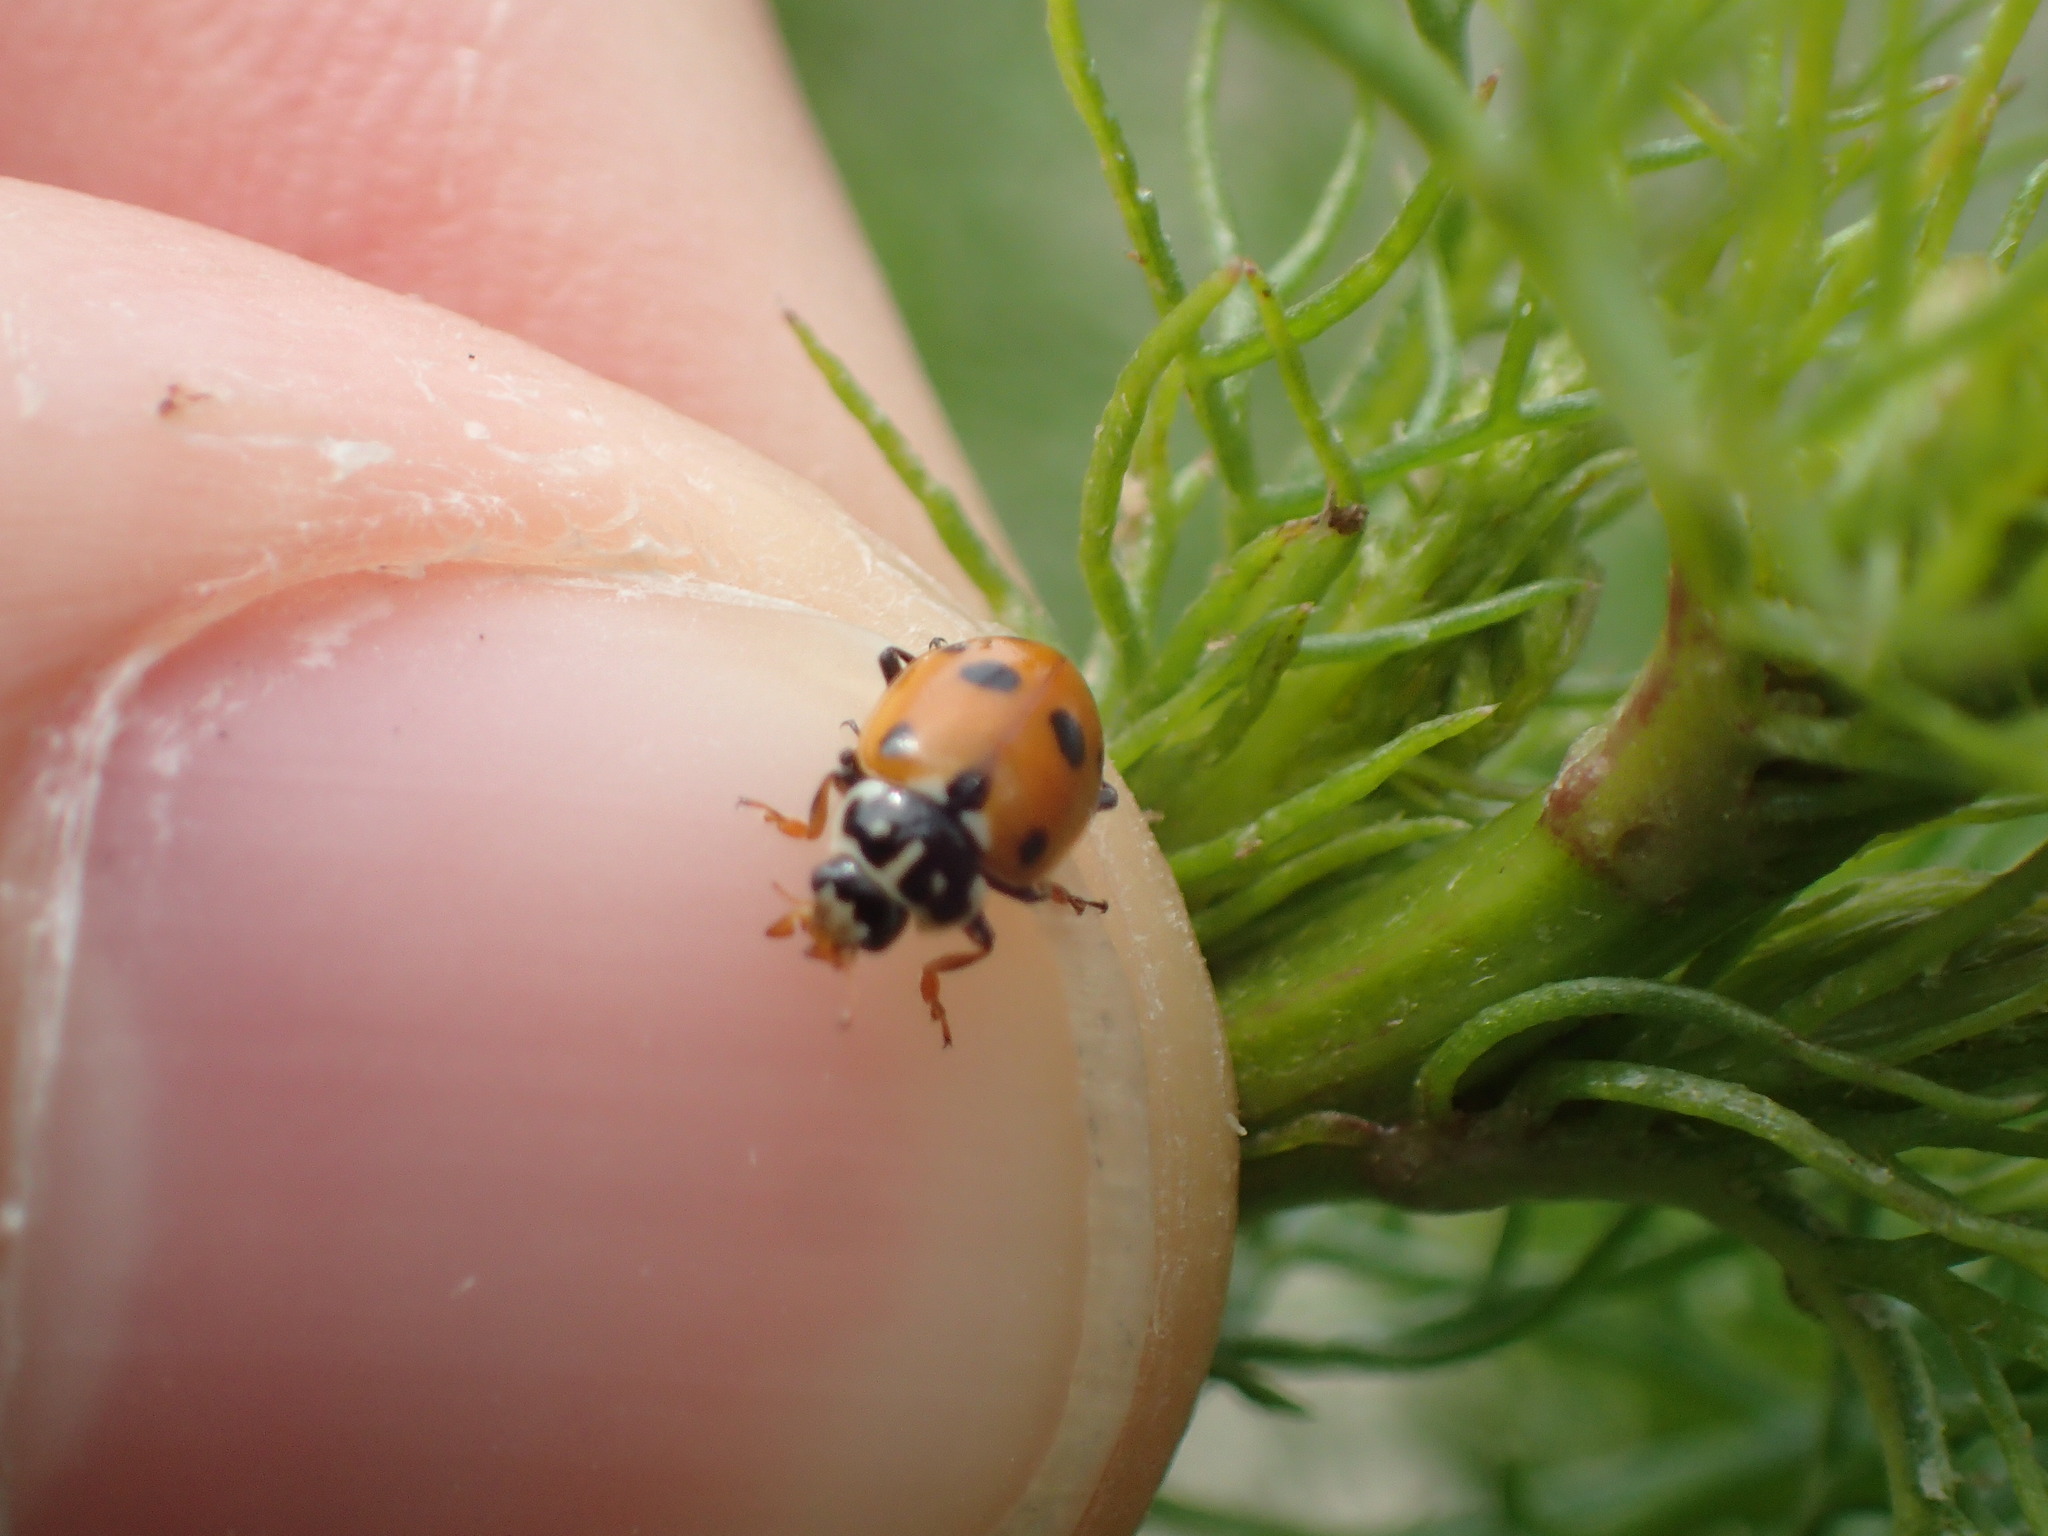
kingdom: Animalia
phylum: Arthropoda
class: Insecta
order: Coleoptera
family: Coccinellidae
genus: Hippodamia
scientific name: Hippodamia variegata
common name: Ladybird beetle
